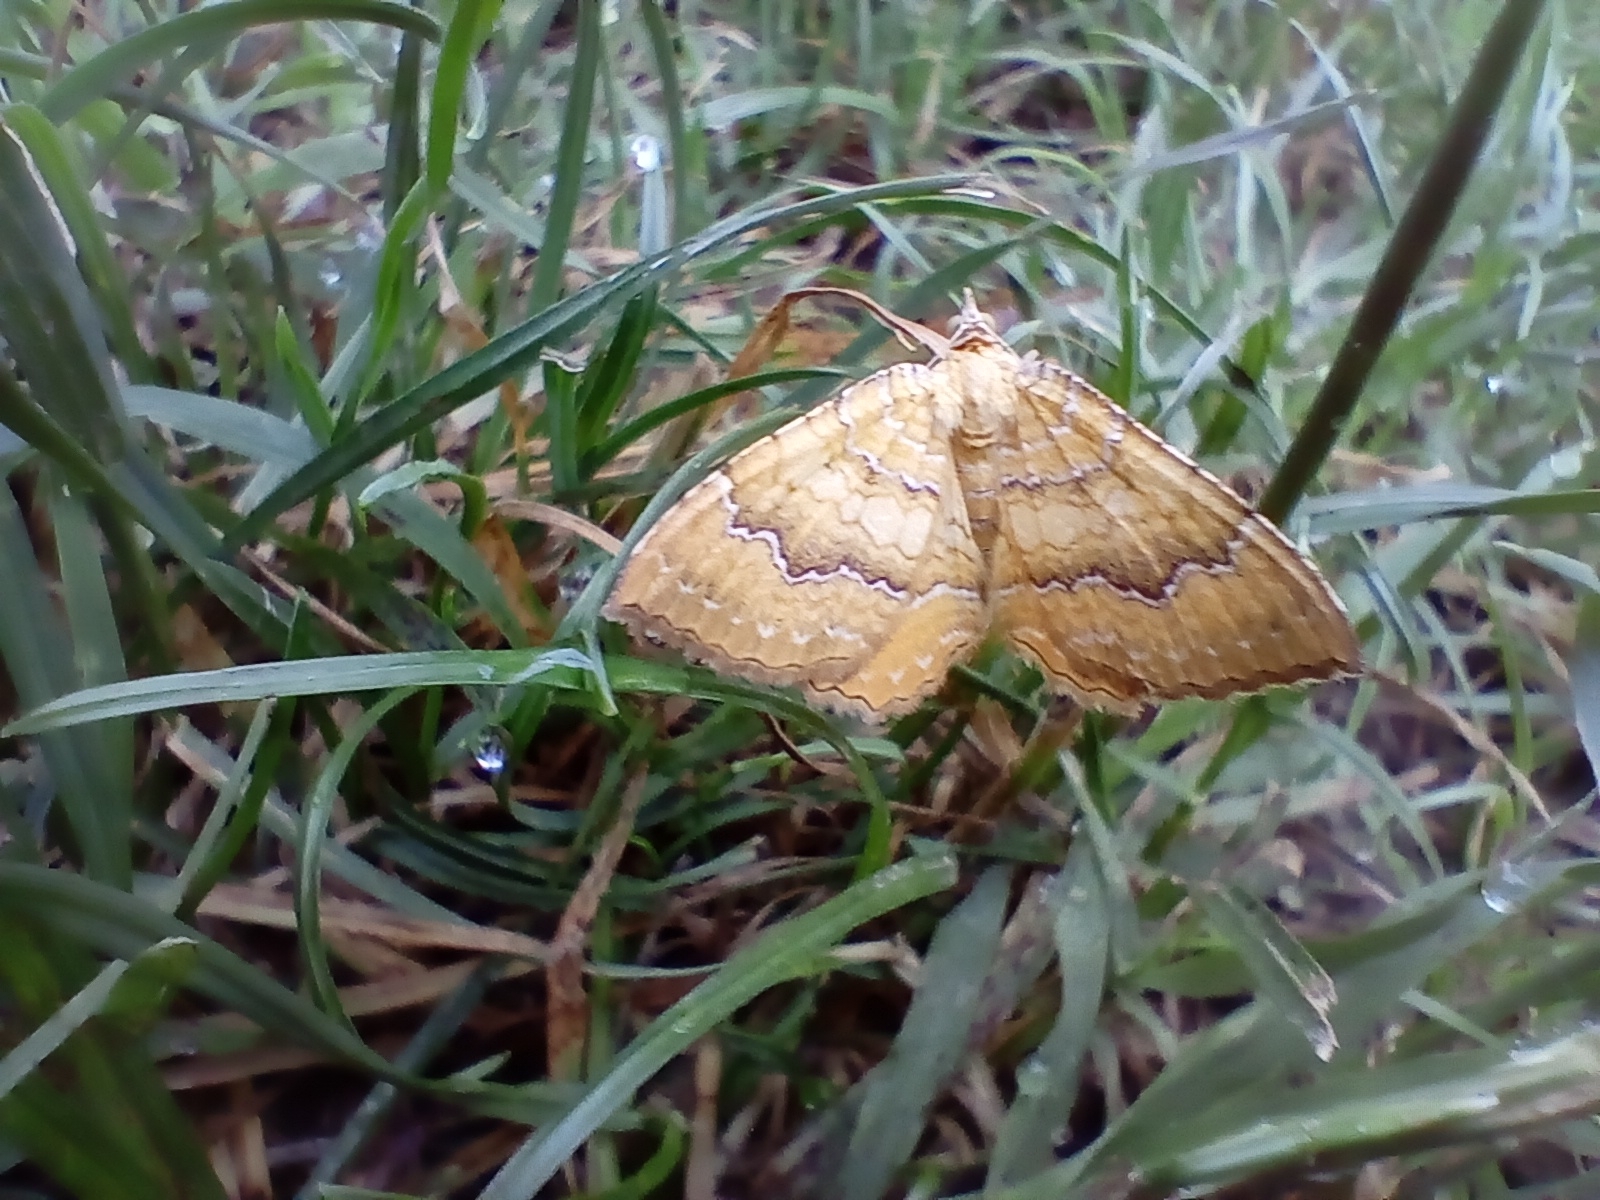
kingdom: Animalia
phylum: Arthropoda
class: Insecta
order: Lepidoptera
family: Geometridae
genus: Camptogramma
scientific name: Camptogramma bilineata
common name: Yellow shell
